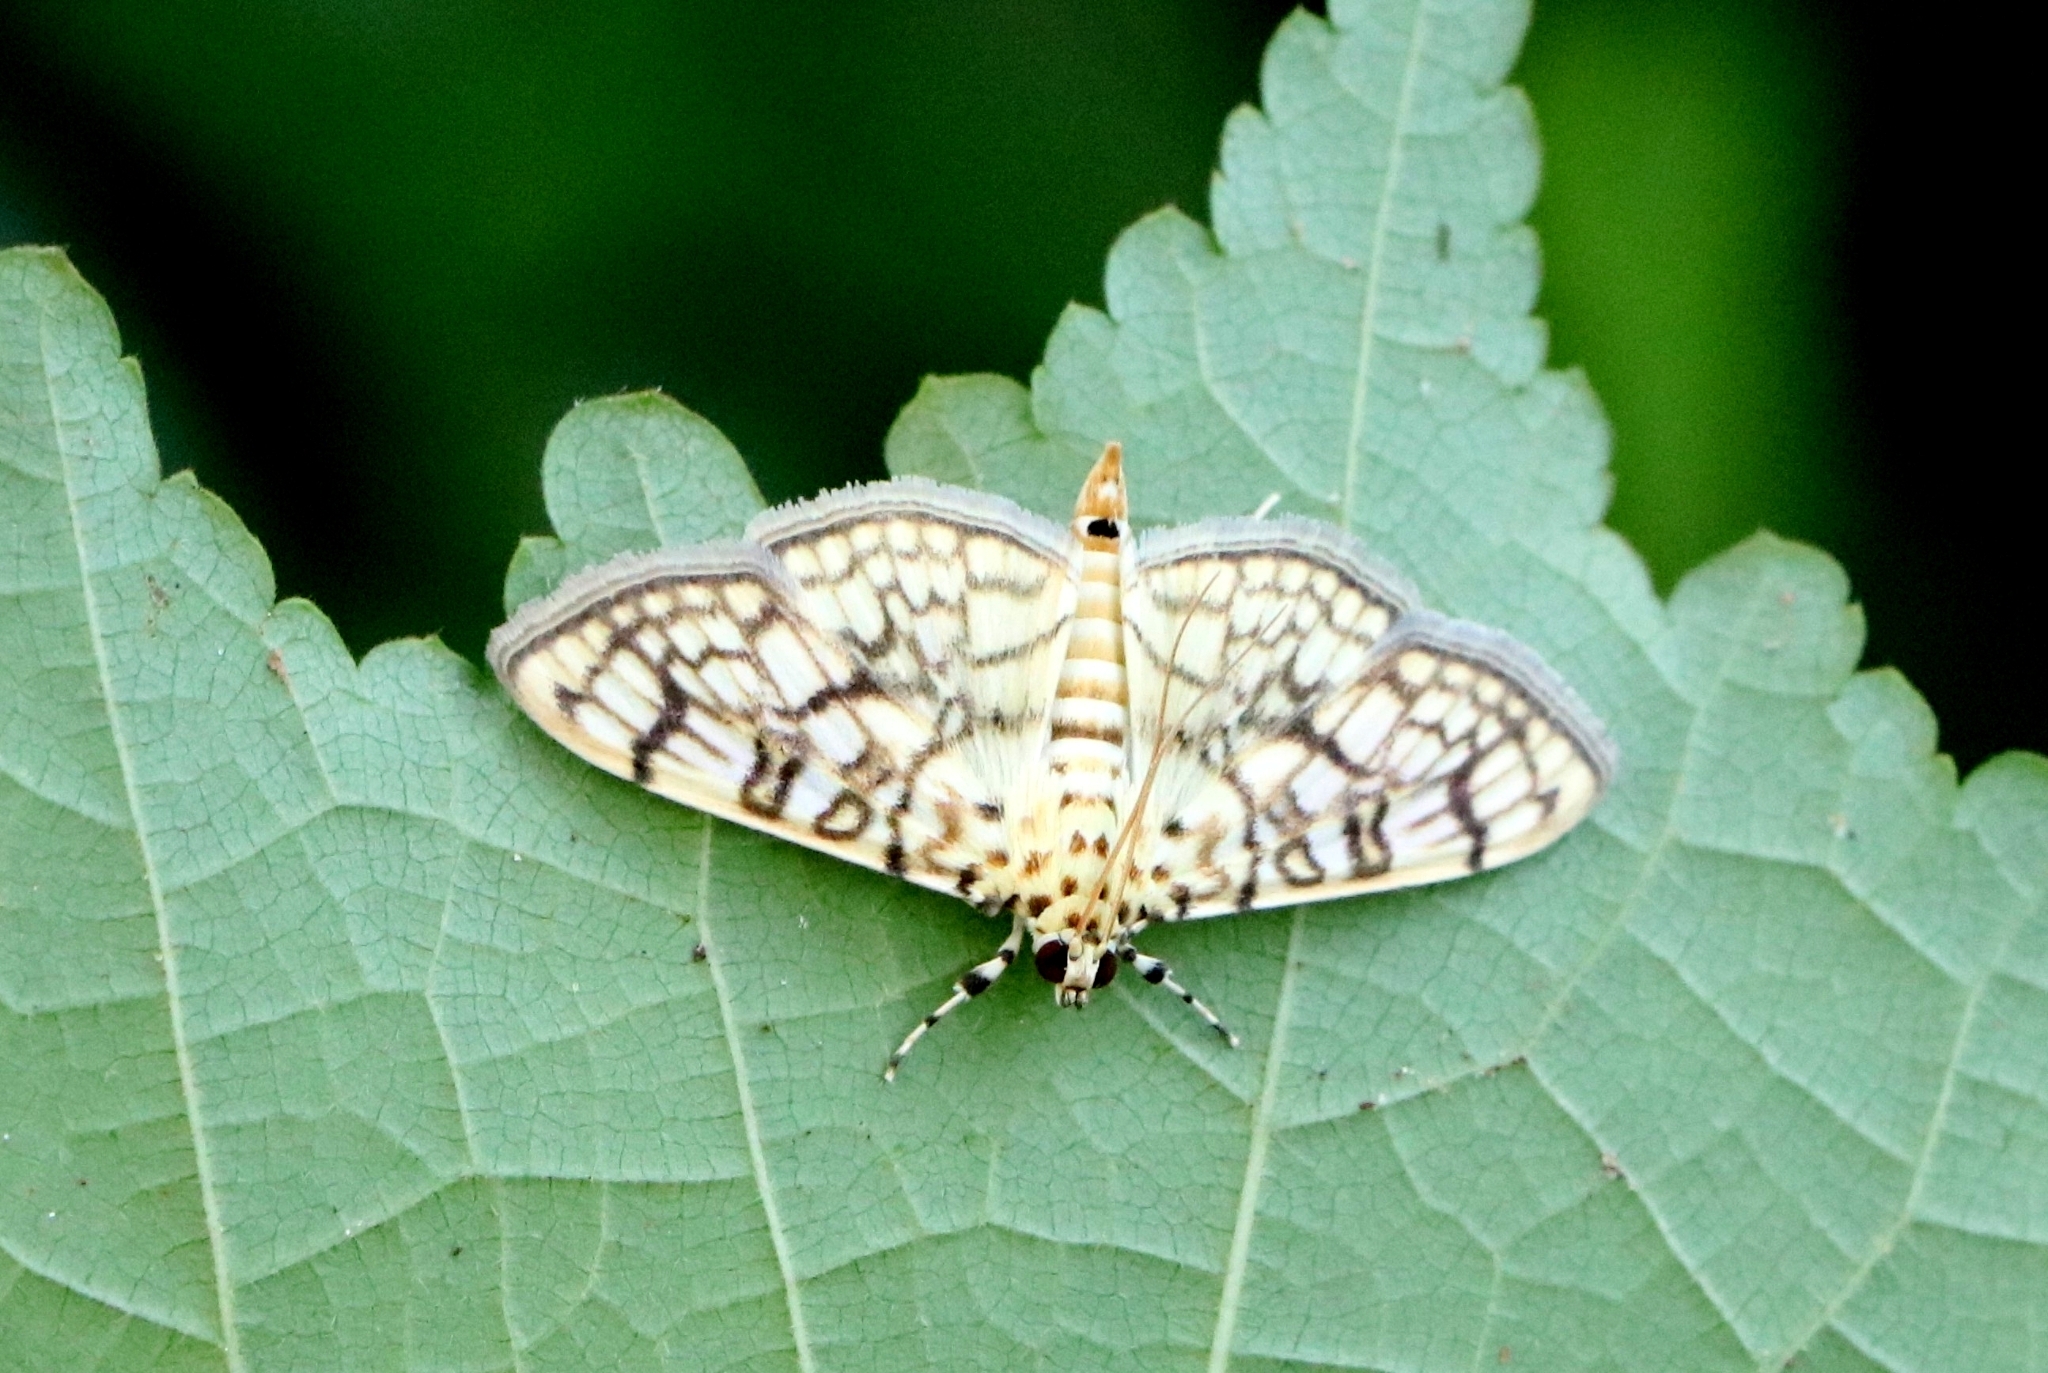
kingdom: Animalia
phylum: Arthropoda
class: Insecta
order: Lepidoptera
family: Crambidae
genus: Haritalodes
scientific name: Haritalodes derogata
